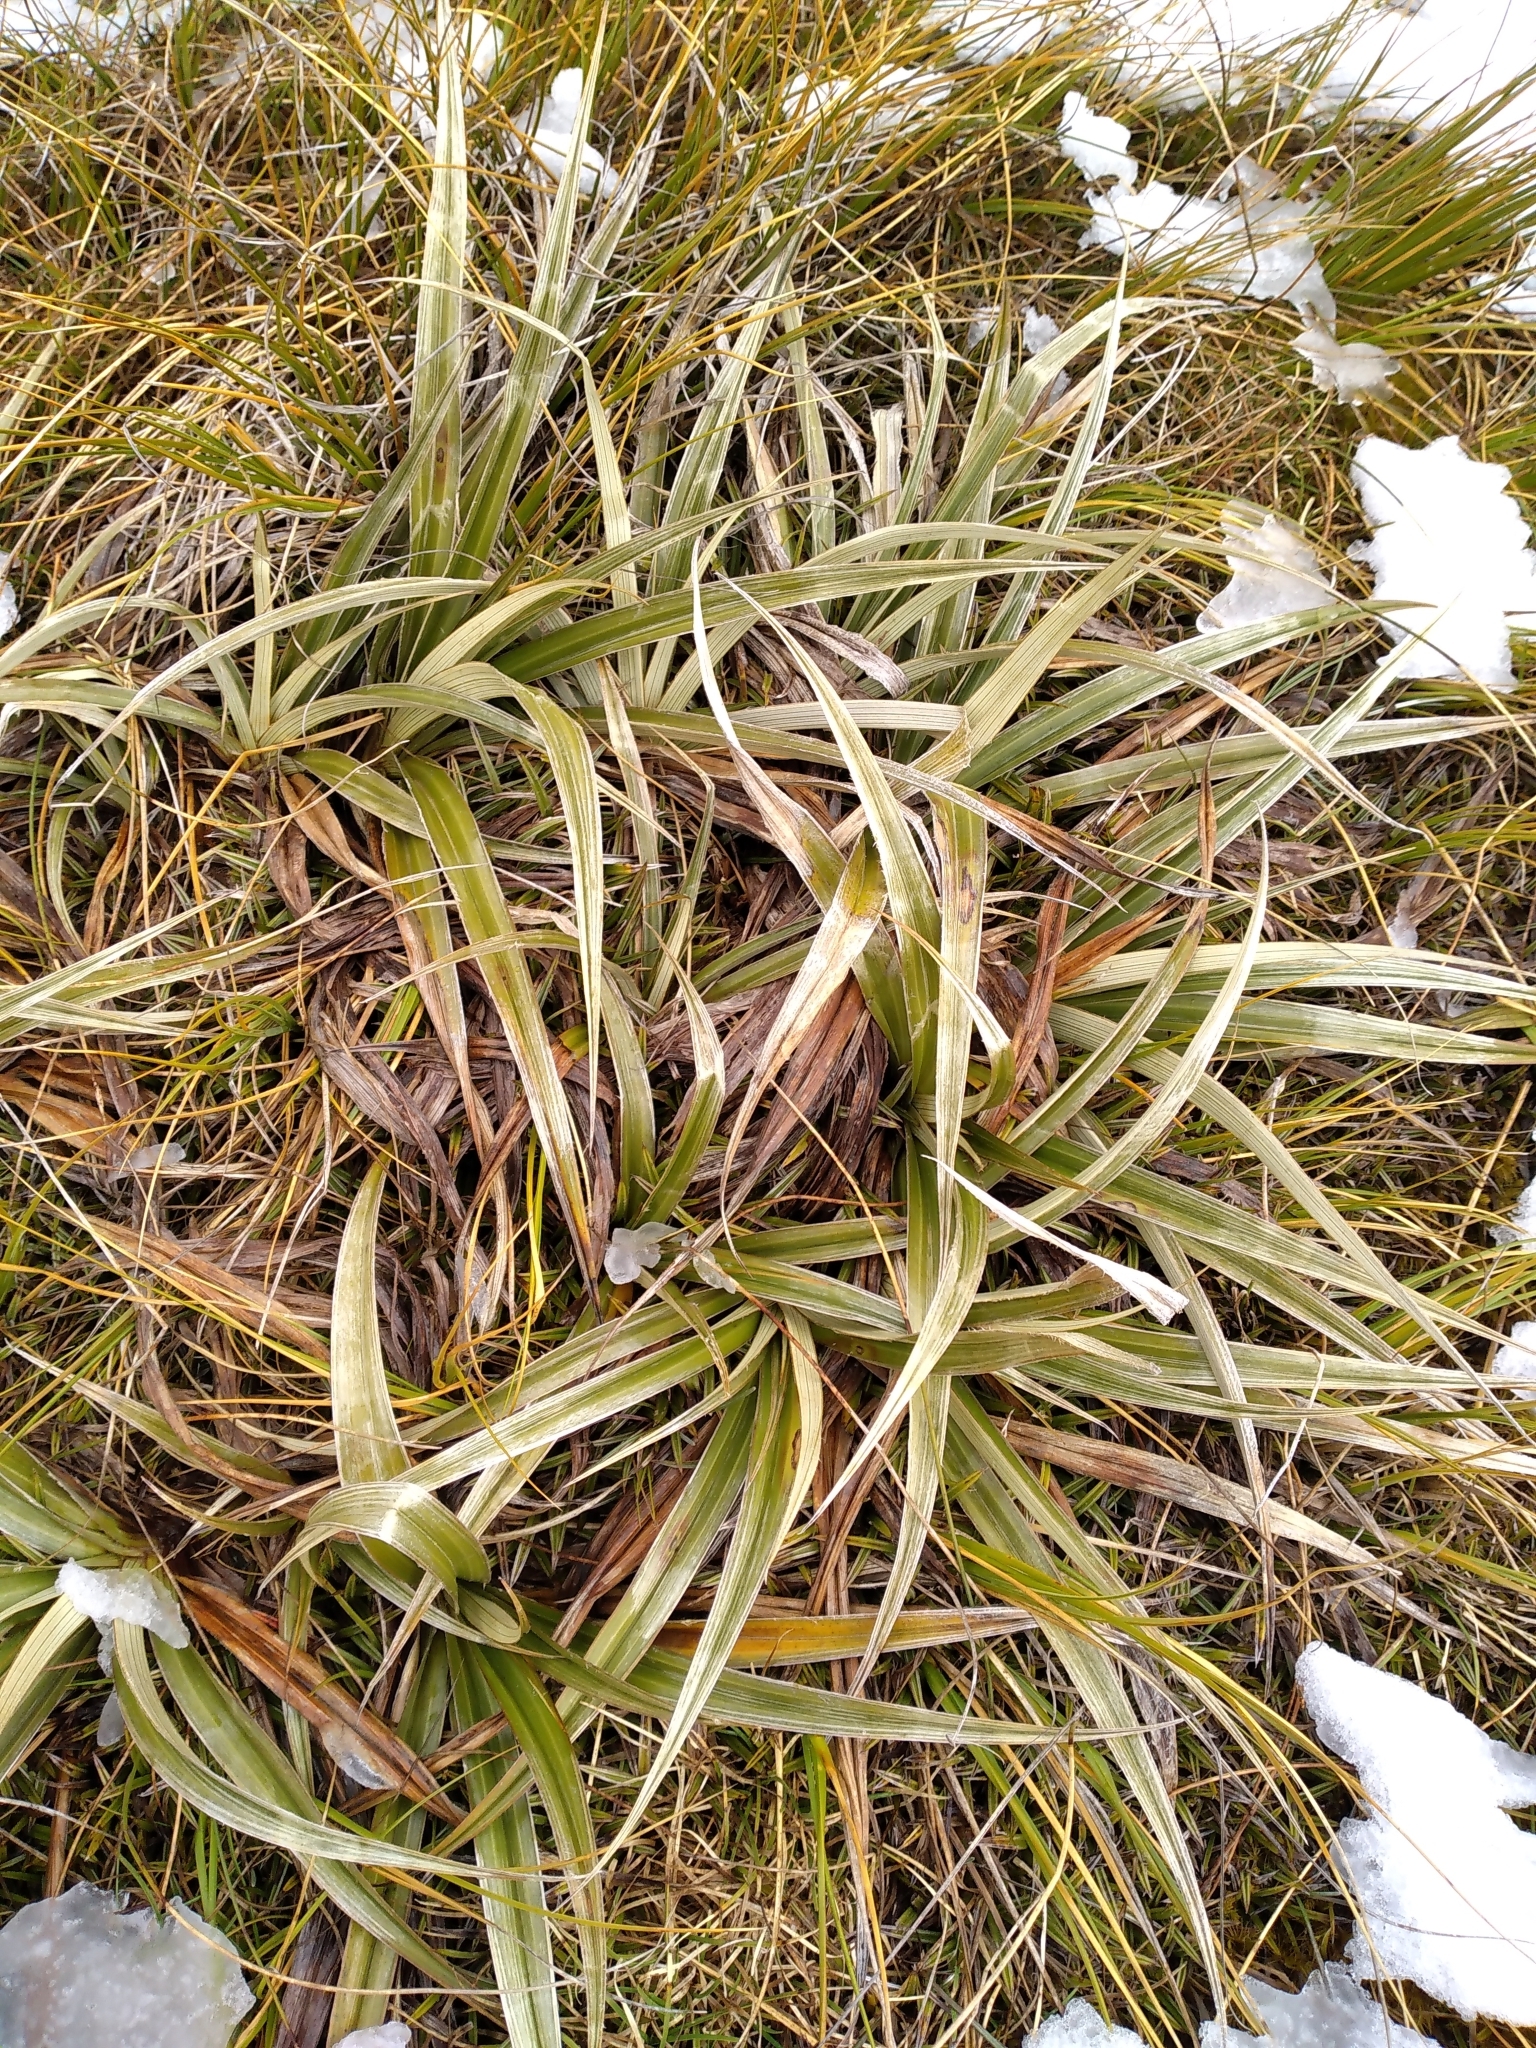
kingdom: Plantae
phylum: Tracheophyta
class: Liliopsida
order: Asparagales
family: Asteliaceae
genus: Astelia
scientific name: Astelia nivicola
